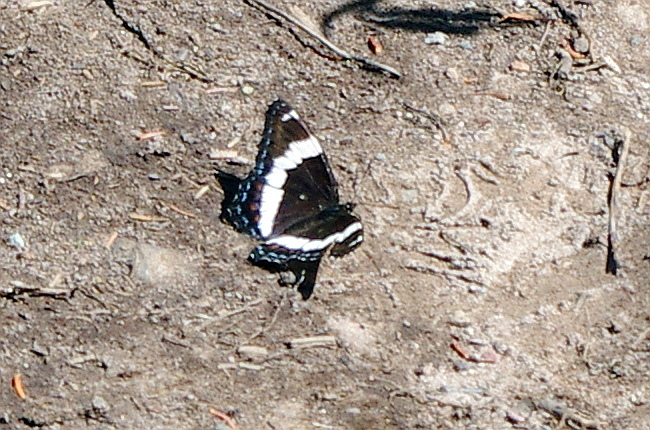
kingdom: Animalia
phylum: Arthropoda
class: Insecta
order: Lepidoptera
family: Nymphalidae
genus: Limenitis
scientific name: Limenitis arthemis
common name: Red-spotted admiral
